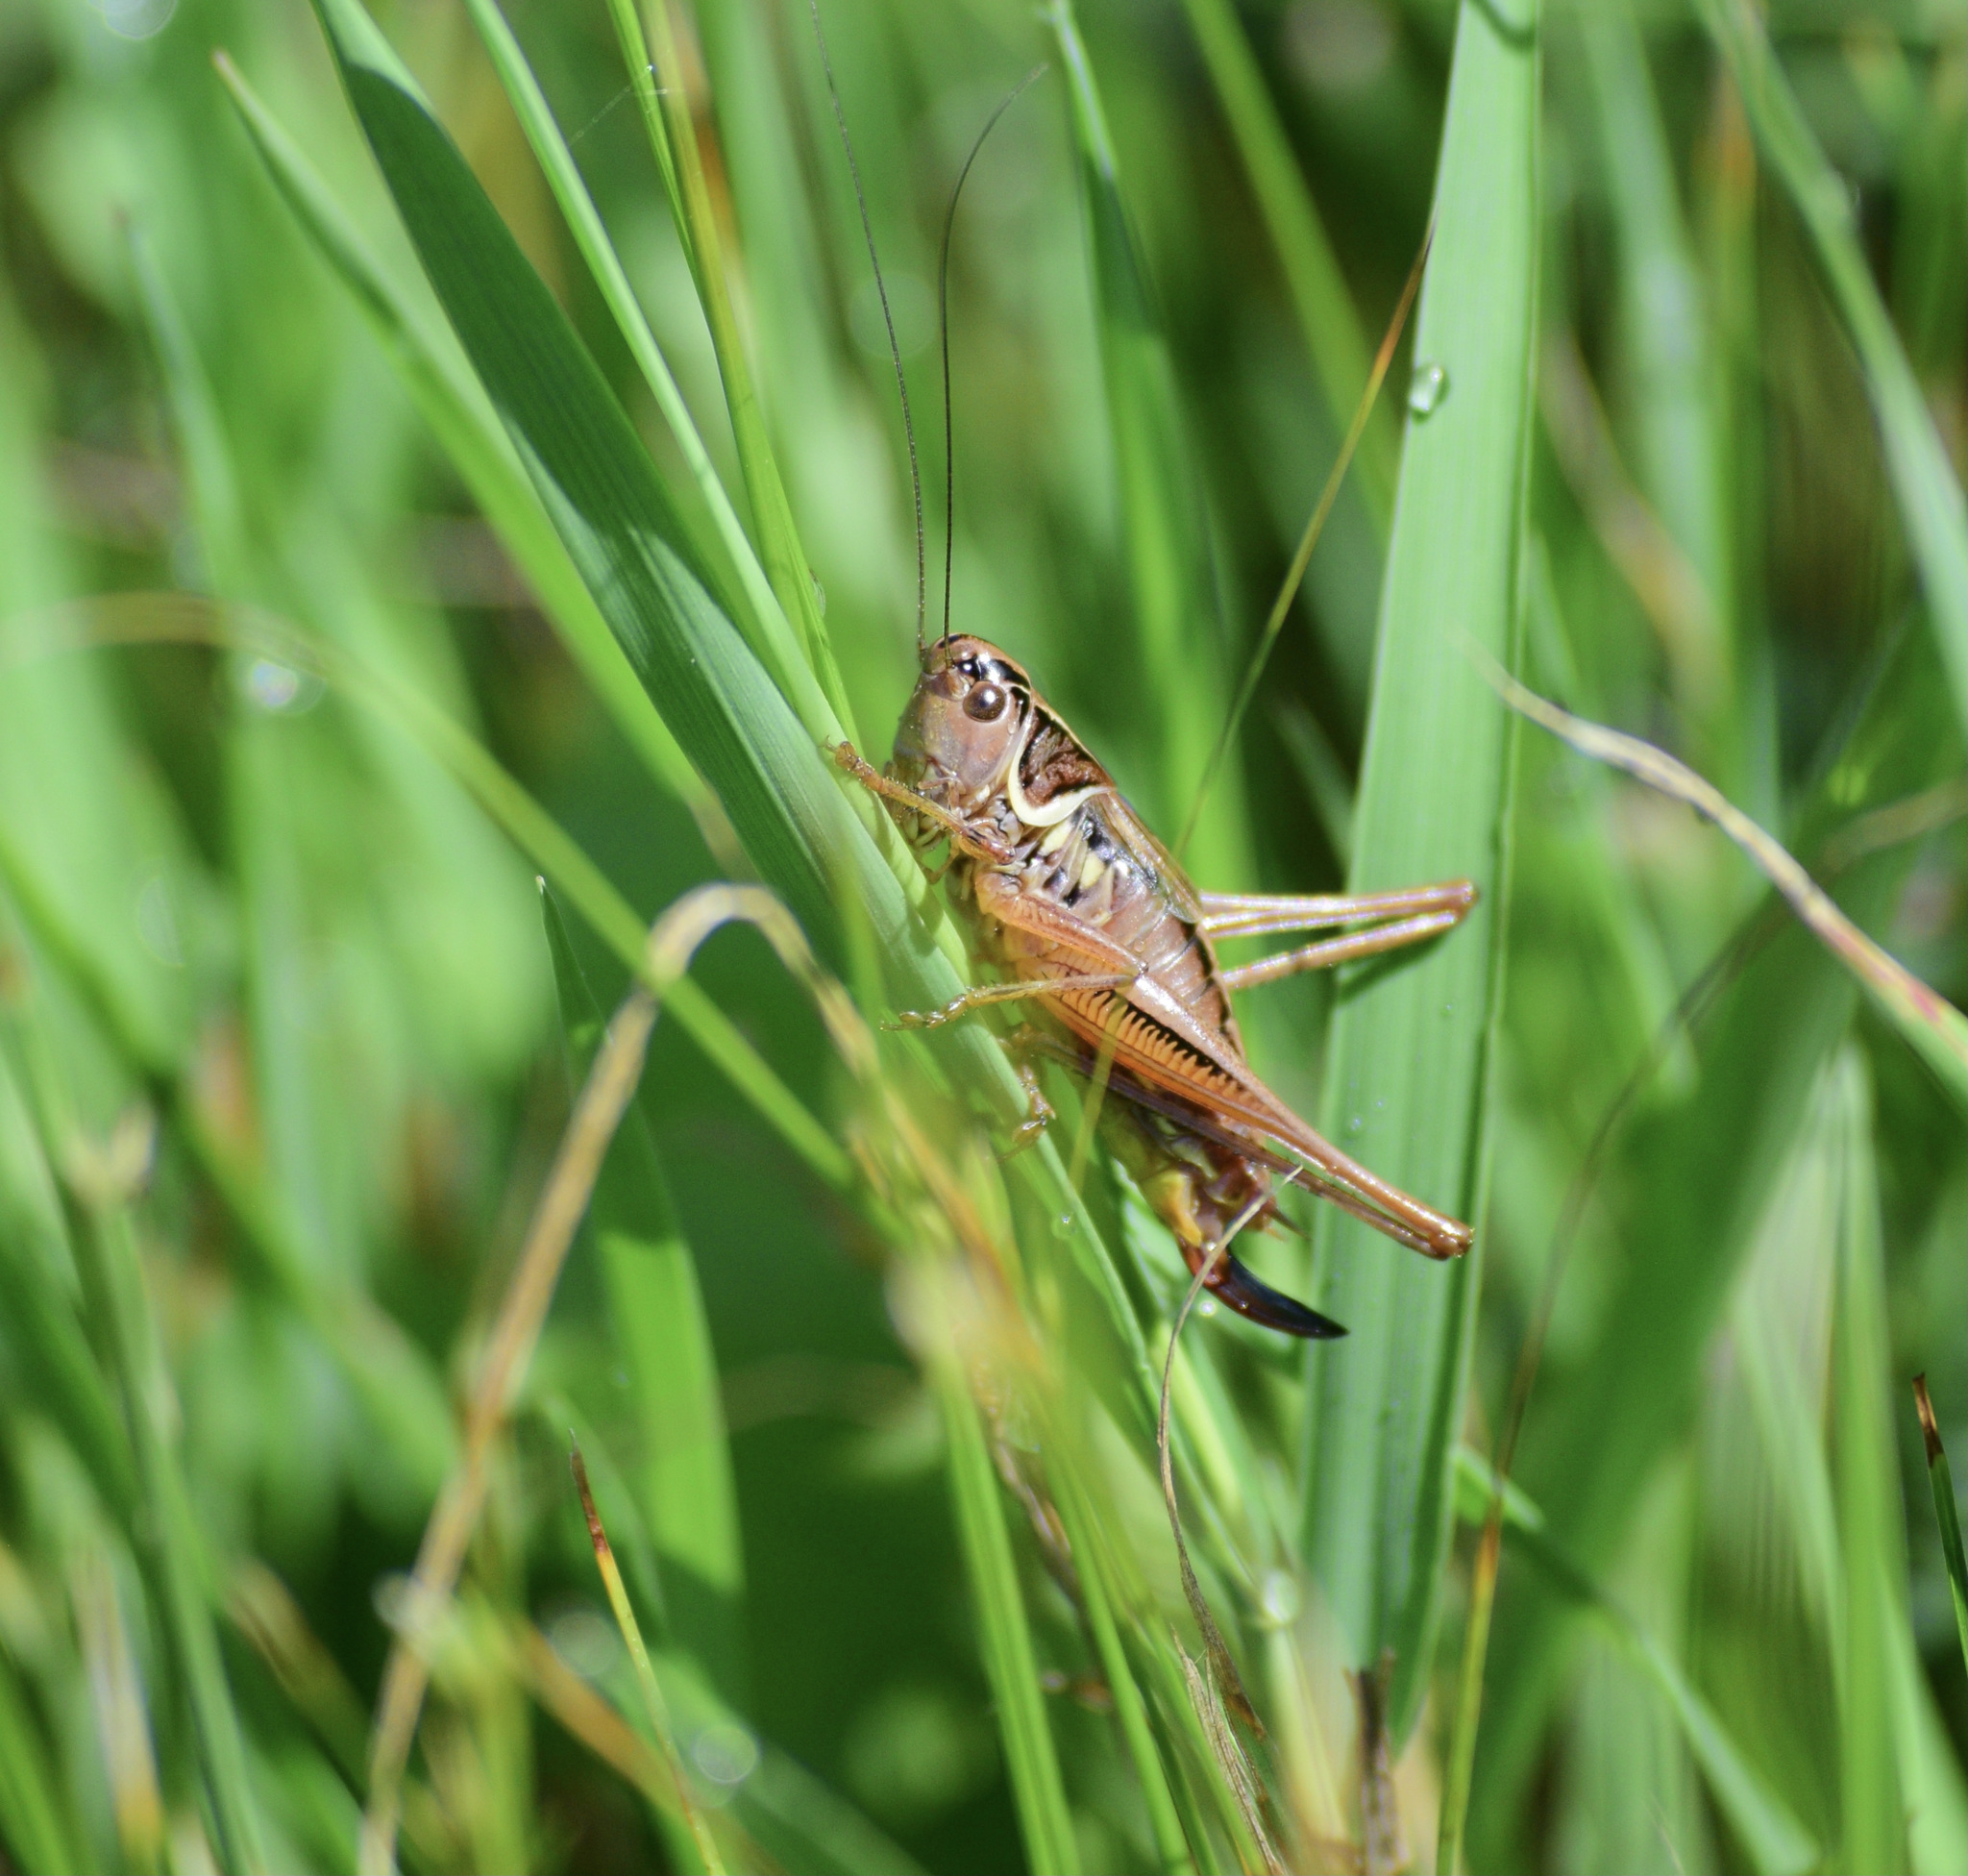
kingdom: Animalia
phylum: Arthropoda
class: Insecta
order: Orthoptera
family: Tettigoniidae
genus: Roeseliana
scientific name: Roeseliana roeselii
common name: Roesel's bush cricket
